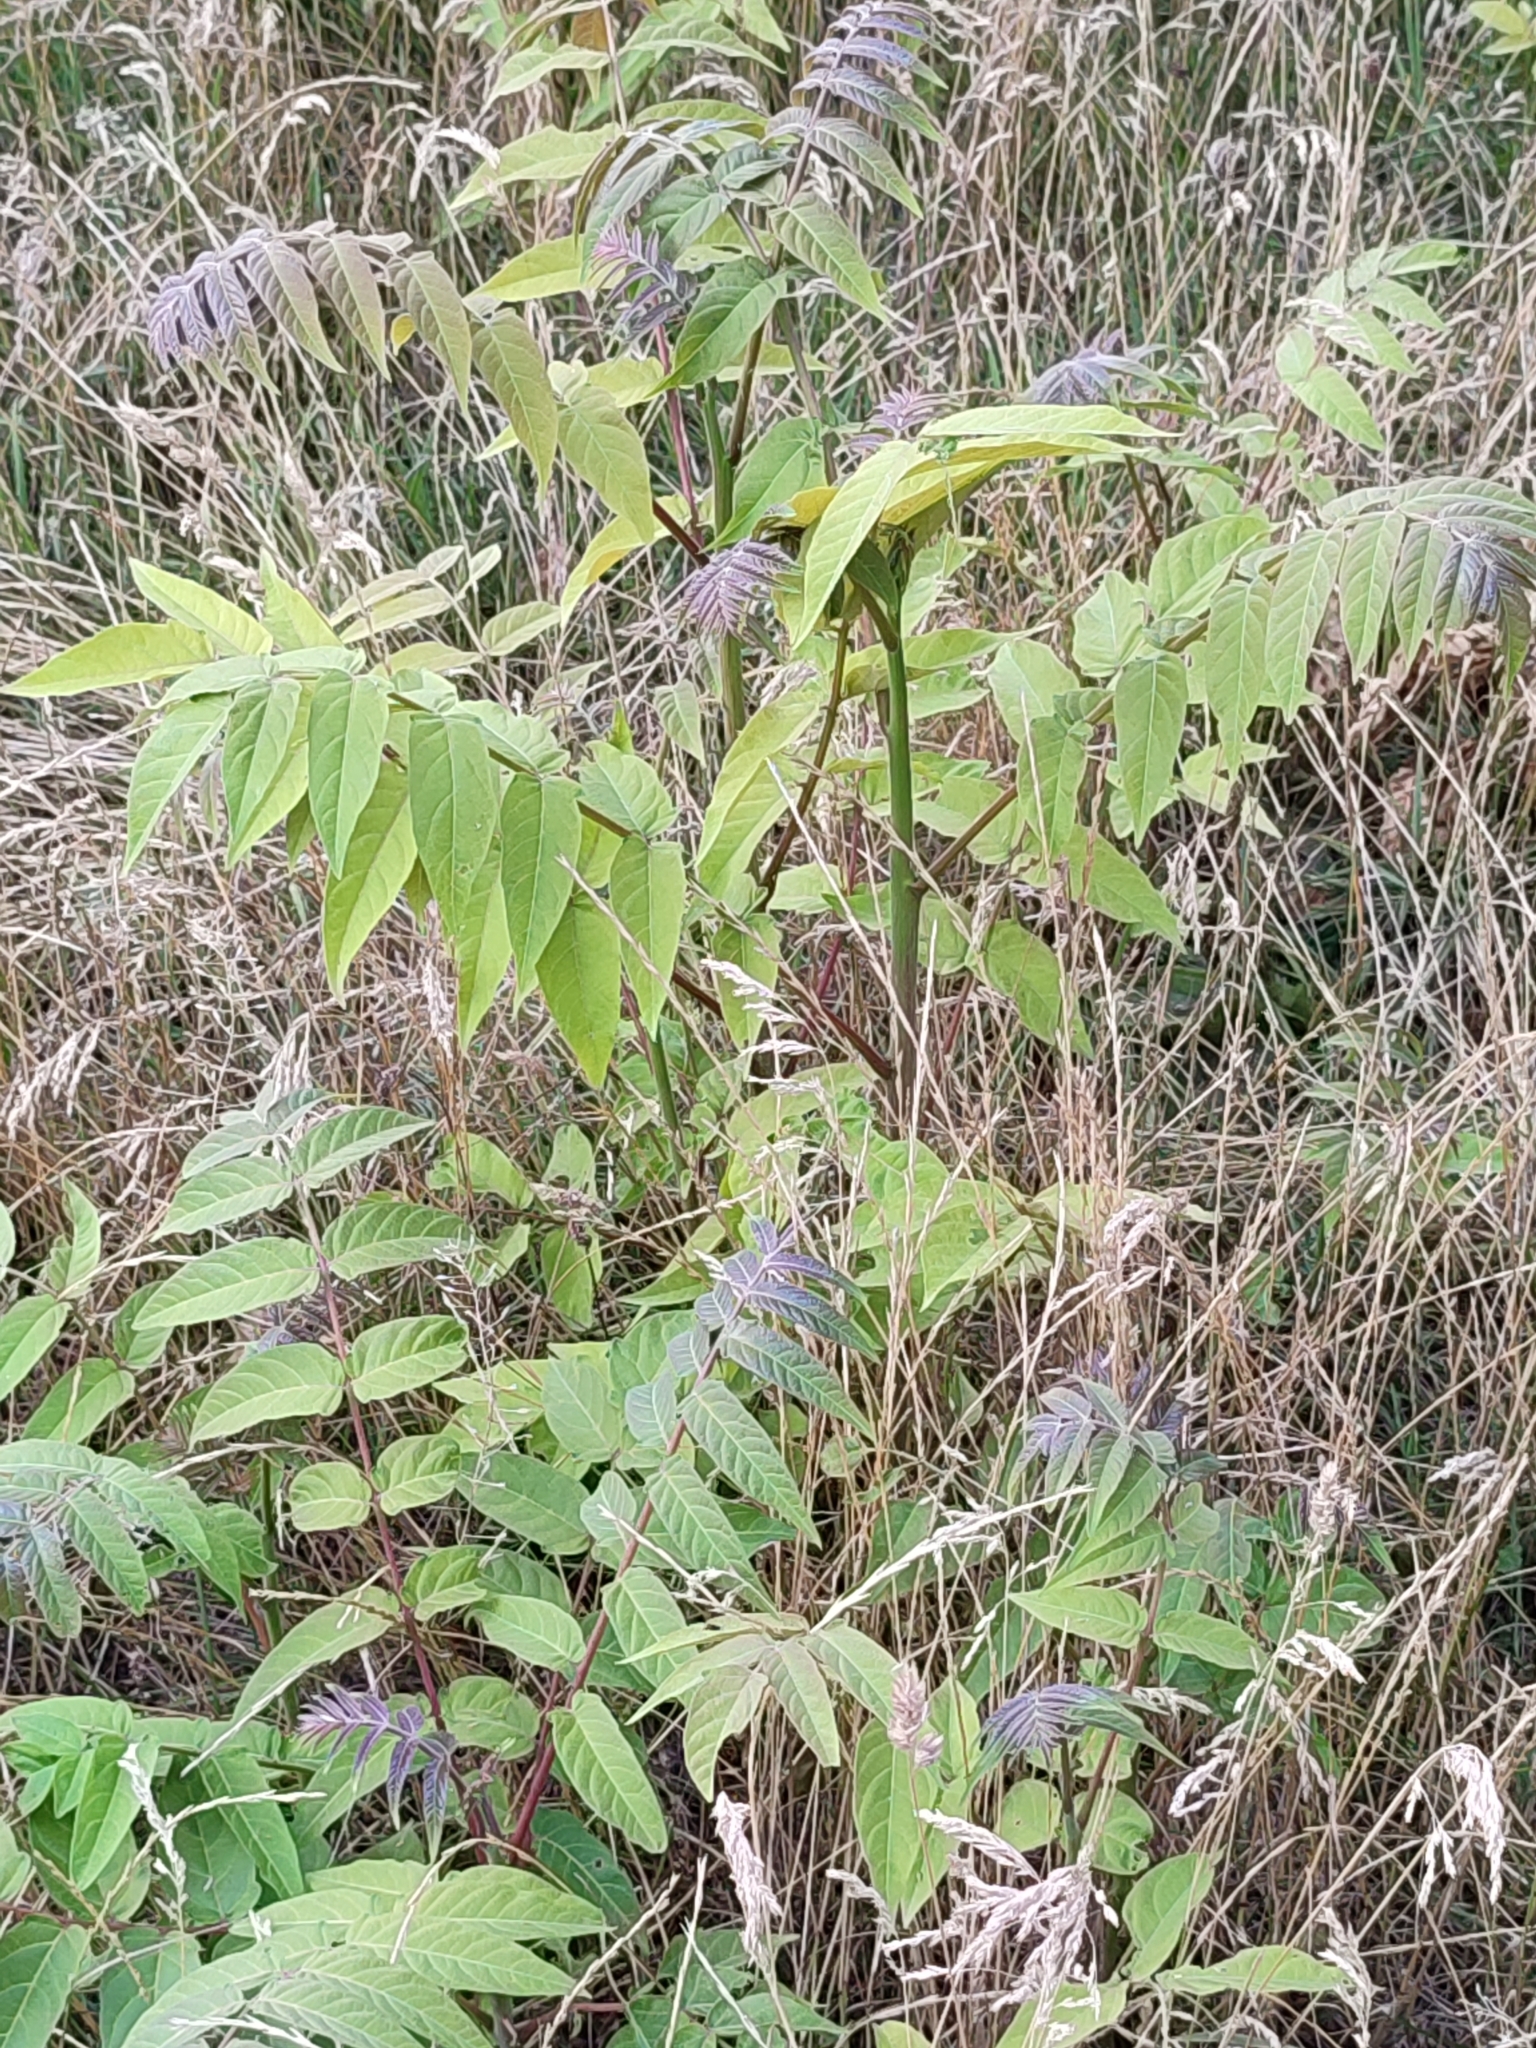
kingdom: Plantae
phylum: Tracheophyta
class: Magnoliopsida
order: Sapindales
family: Simaroubaceae
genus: Ailanthus
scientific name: Ailanthus altissima
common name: Tree-of-heaven
